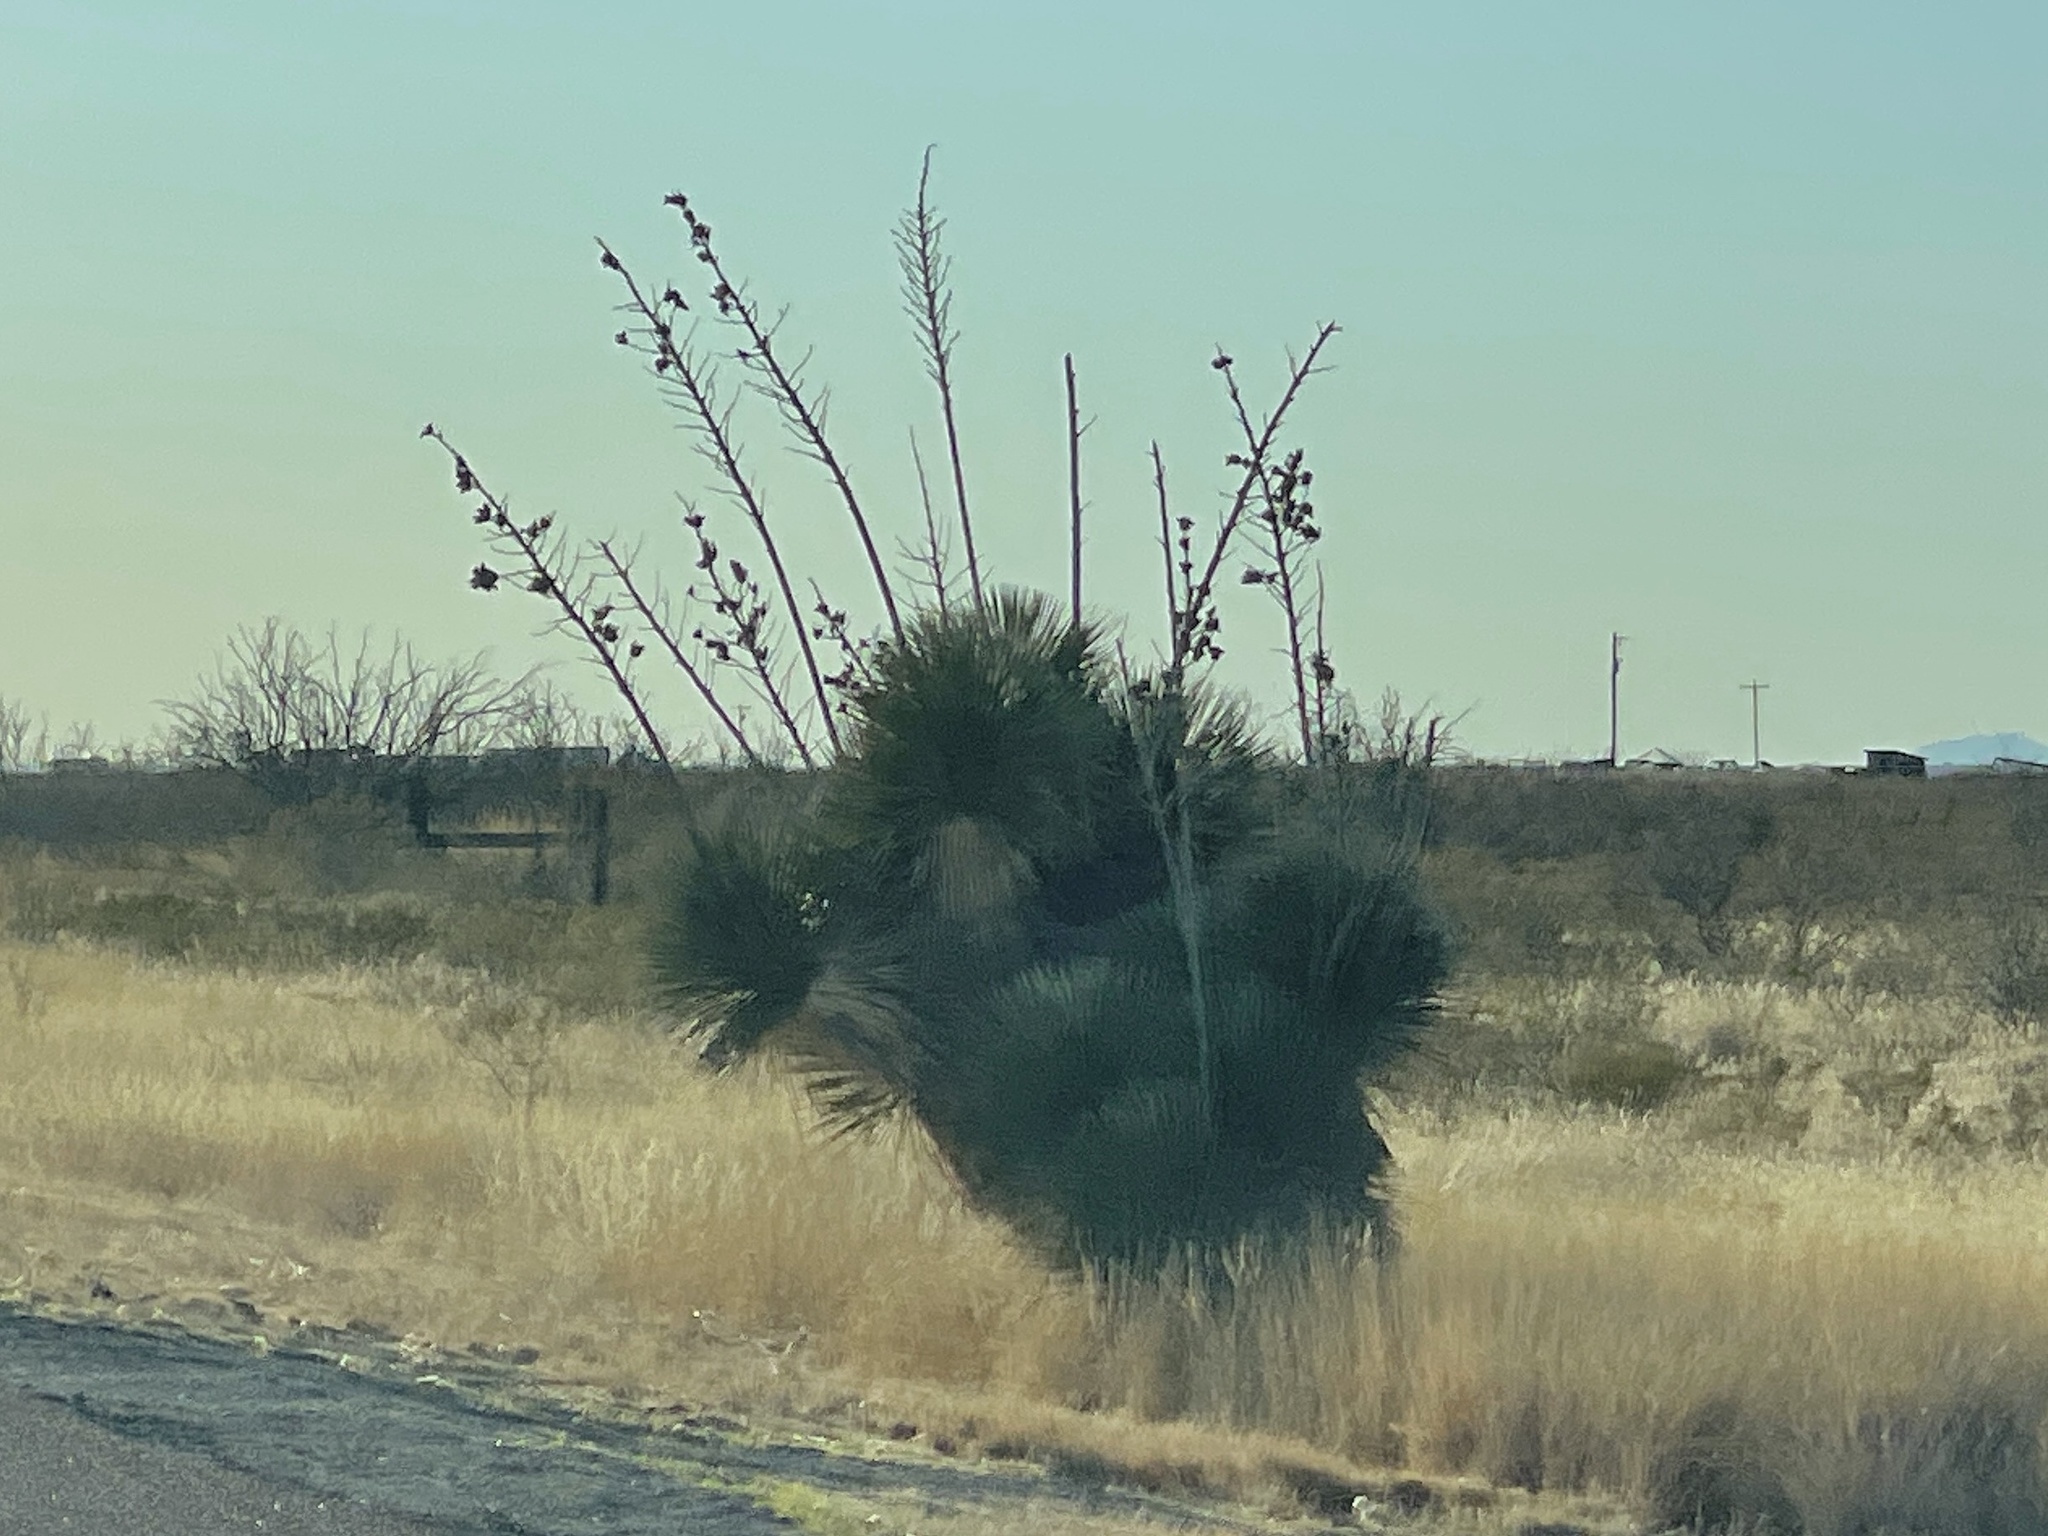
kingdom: Plantae
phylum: Tracheophyta
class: Liliopsida
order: Asparagales
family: Asparagaceae
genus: Yucca
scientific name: Yucca elata
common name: Palmella
